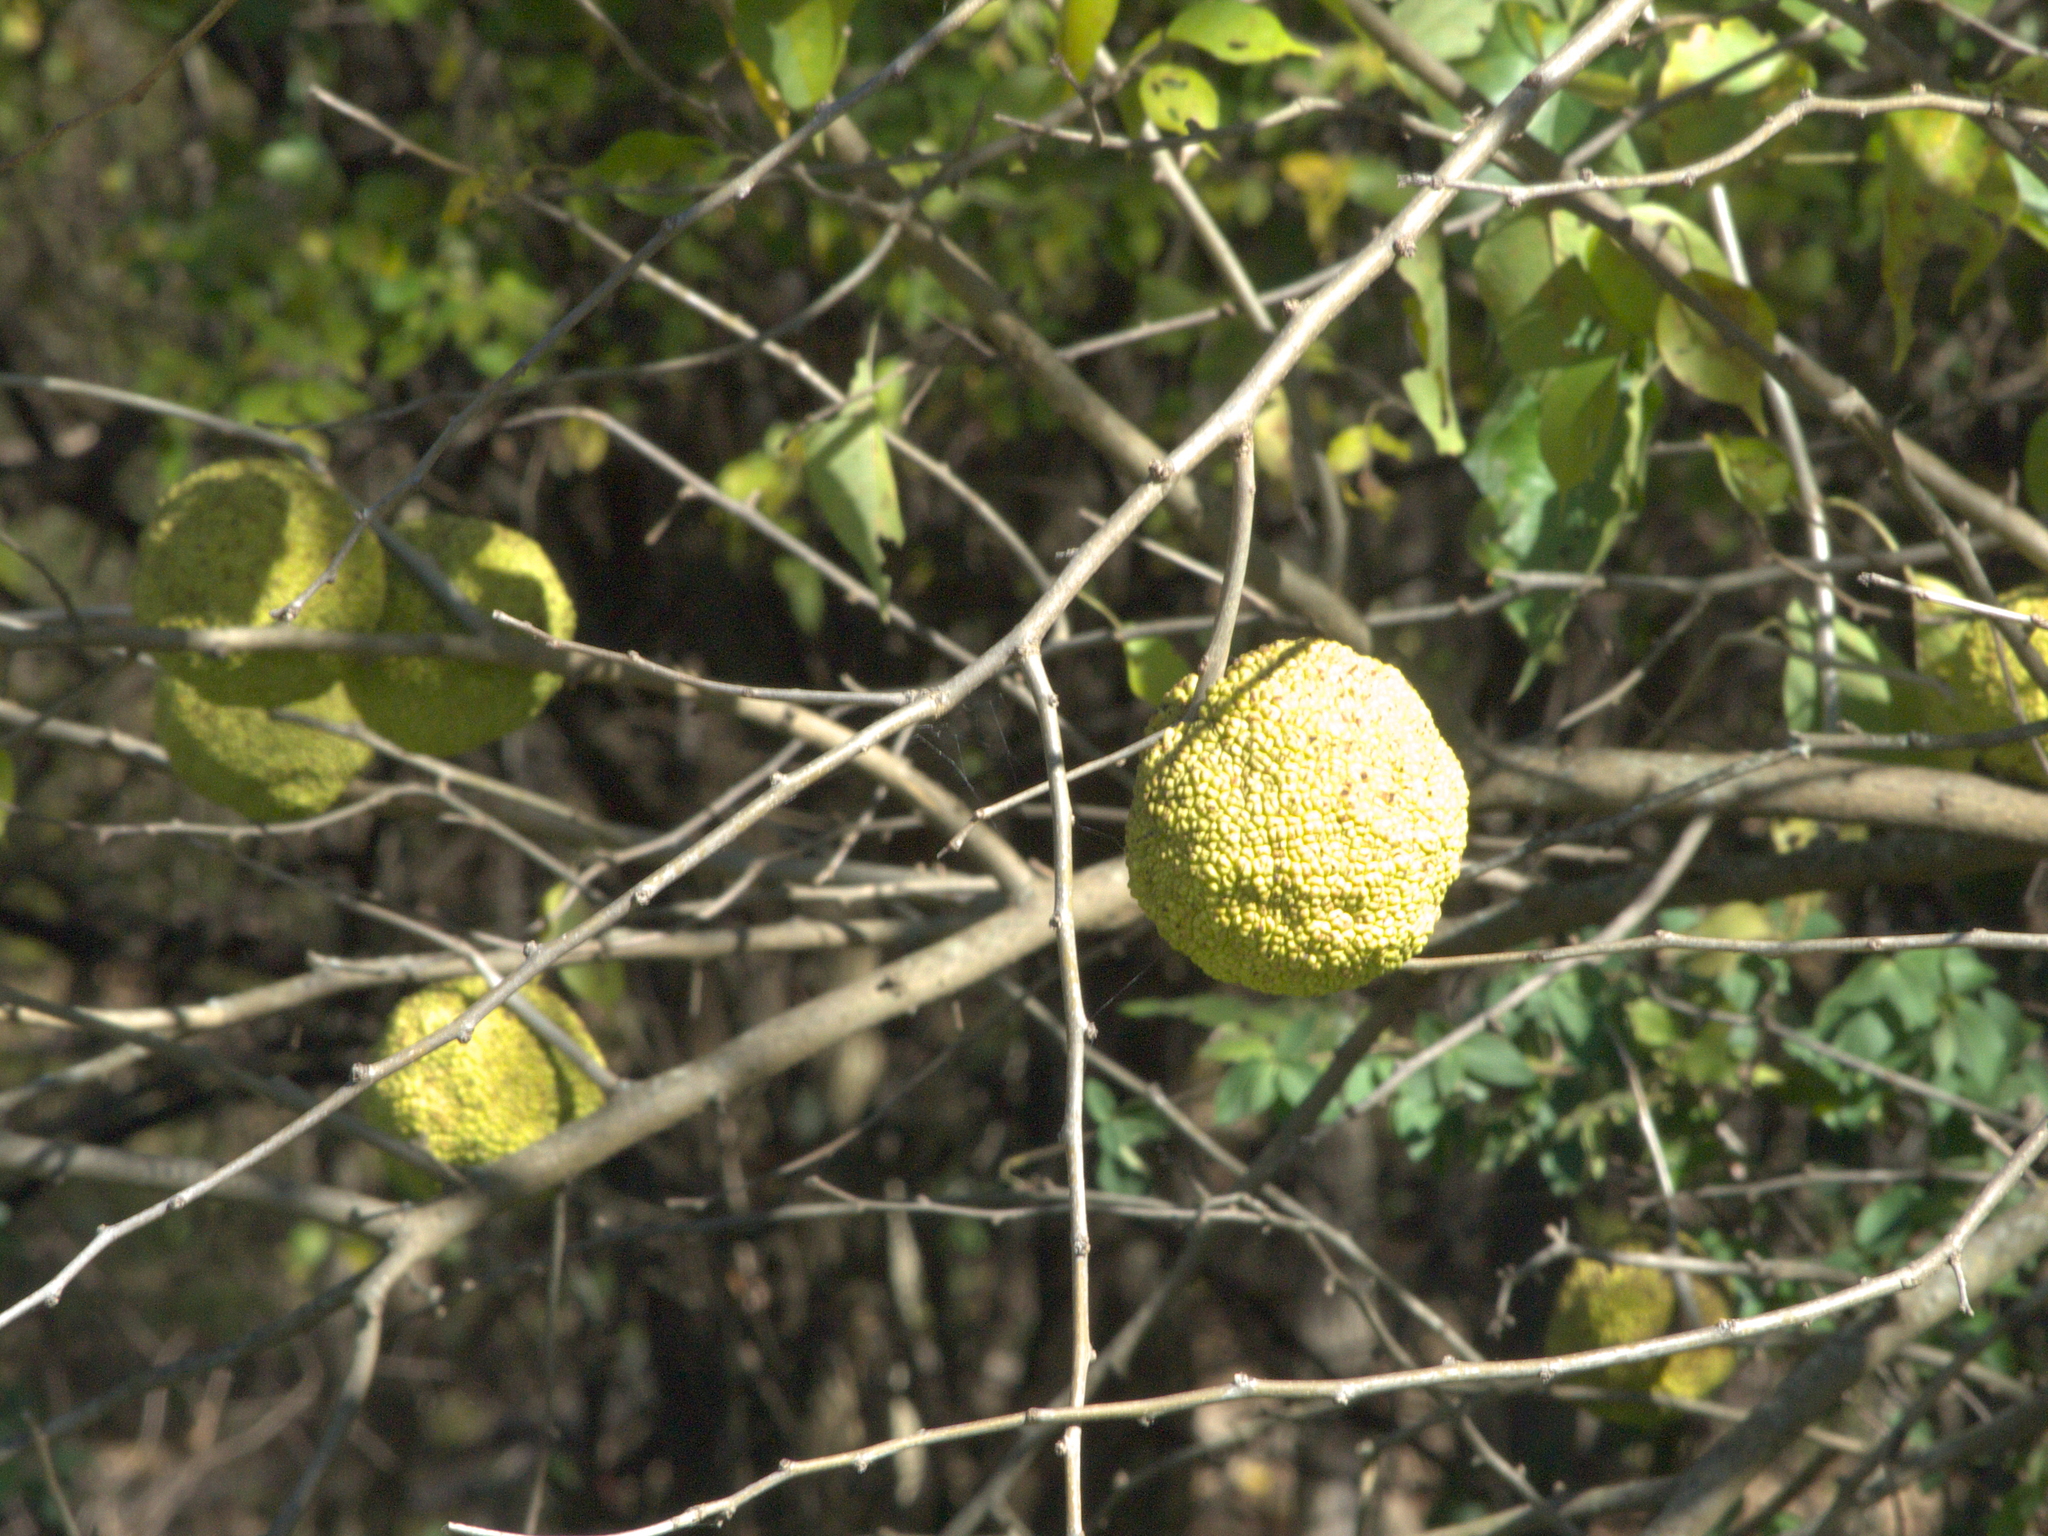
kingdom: Plantae
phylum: Tracheophyta
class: Magnoliopsida
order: Rosales
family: Moraceae
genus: Maclura
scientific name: Maclura pomifera
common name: Osage-orange
